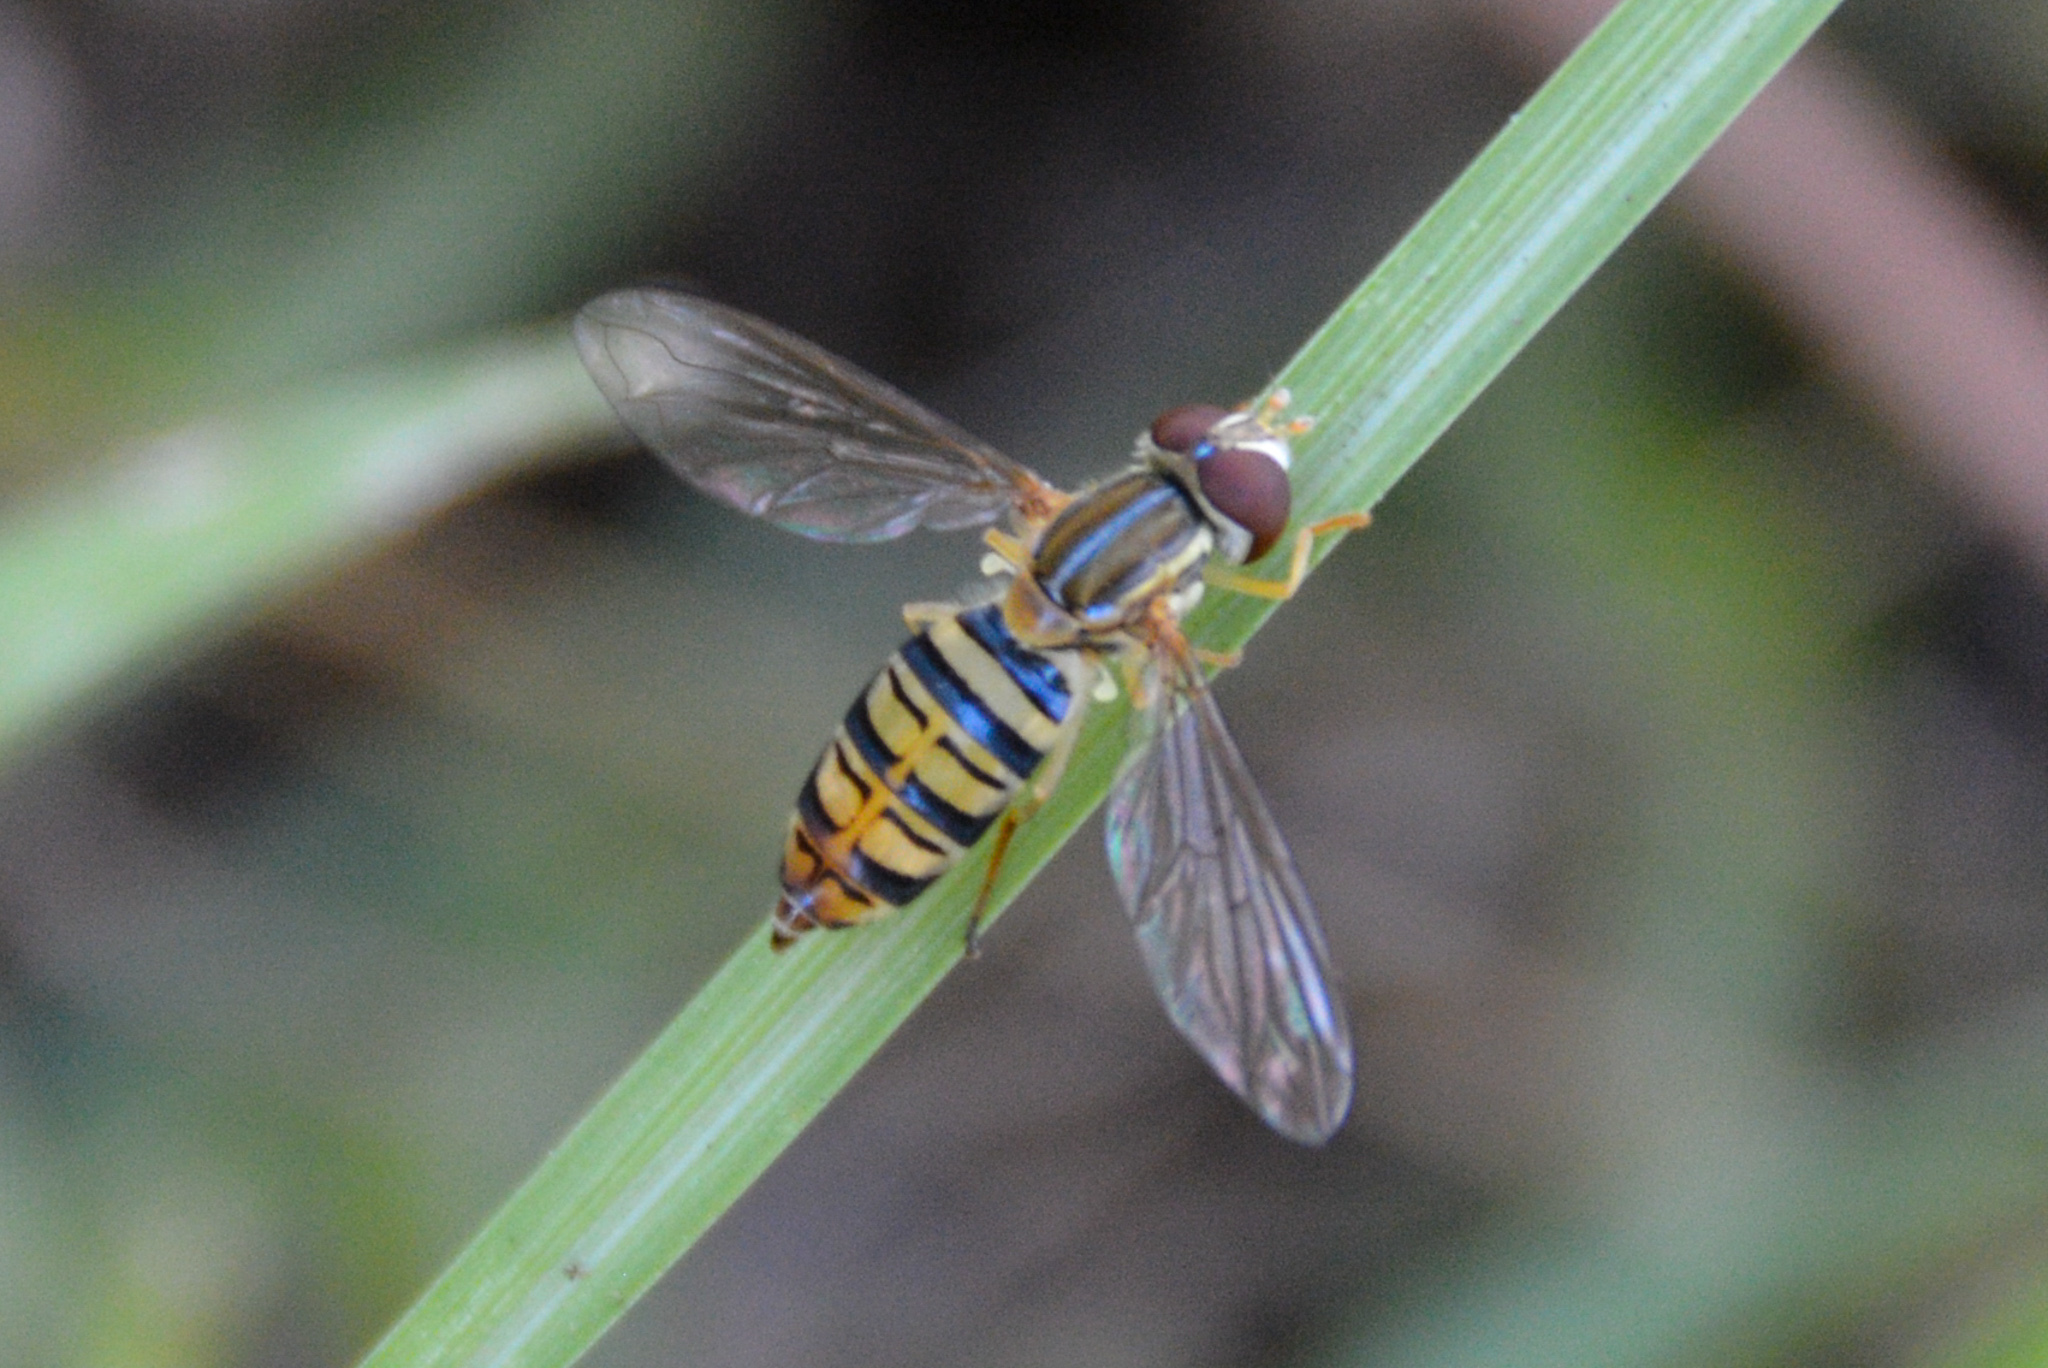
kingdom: Animalia
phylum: Arthropoda
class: Insecta
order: Diptera
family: Syrphidae
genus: Toxomerus
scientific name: Toxomerus politus
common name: Maize calligrapher
